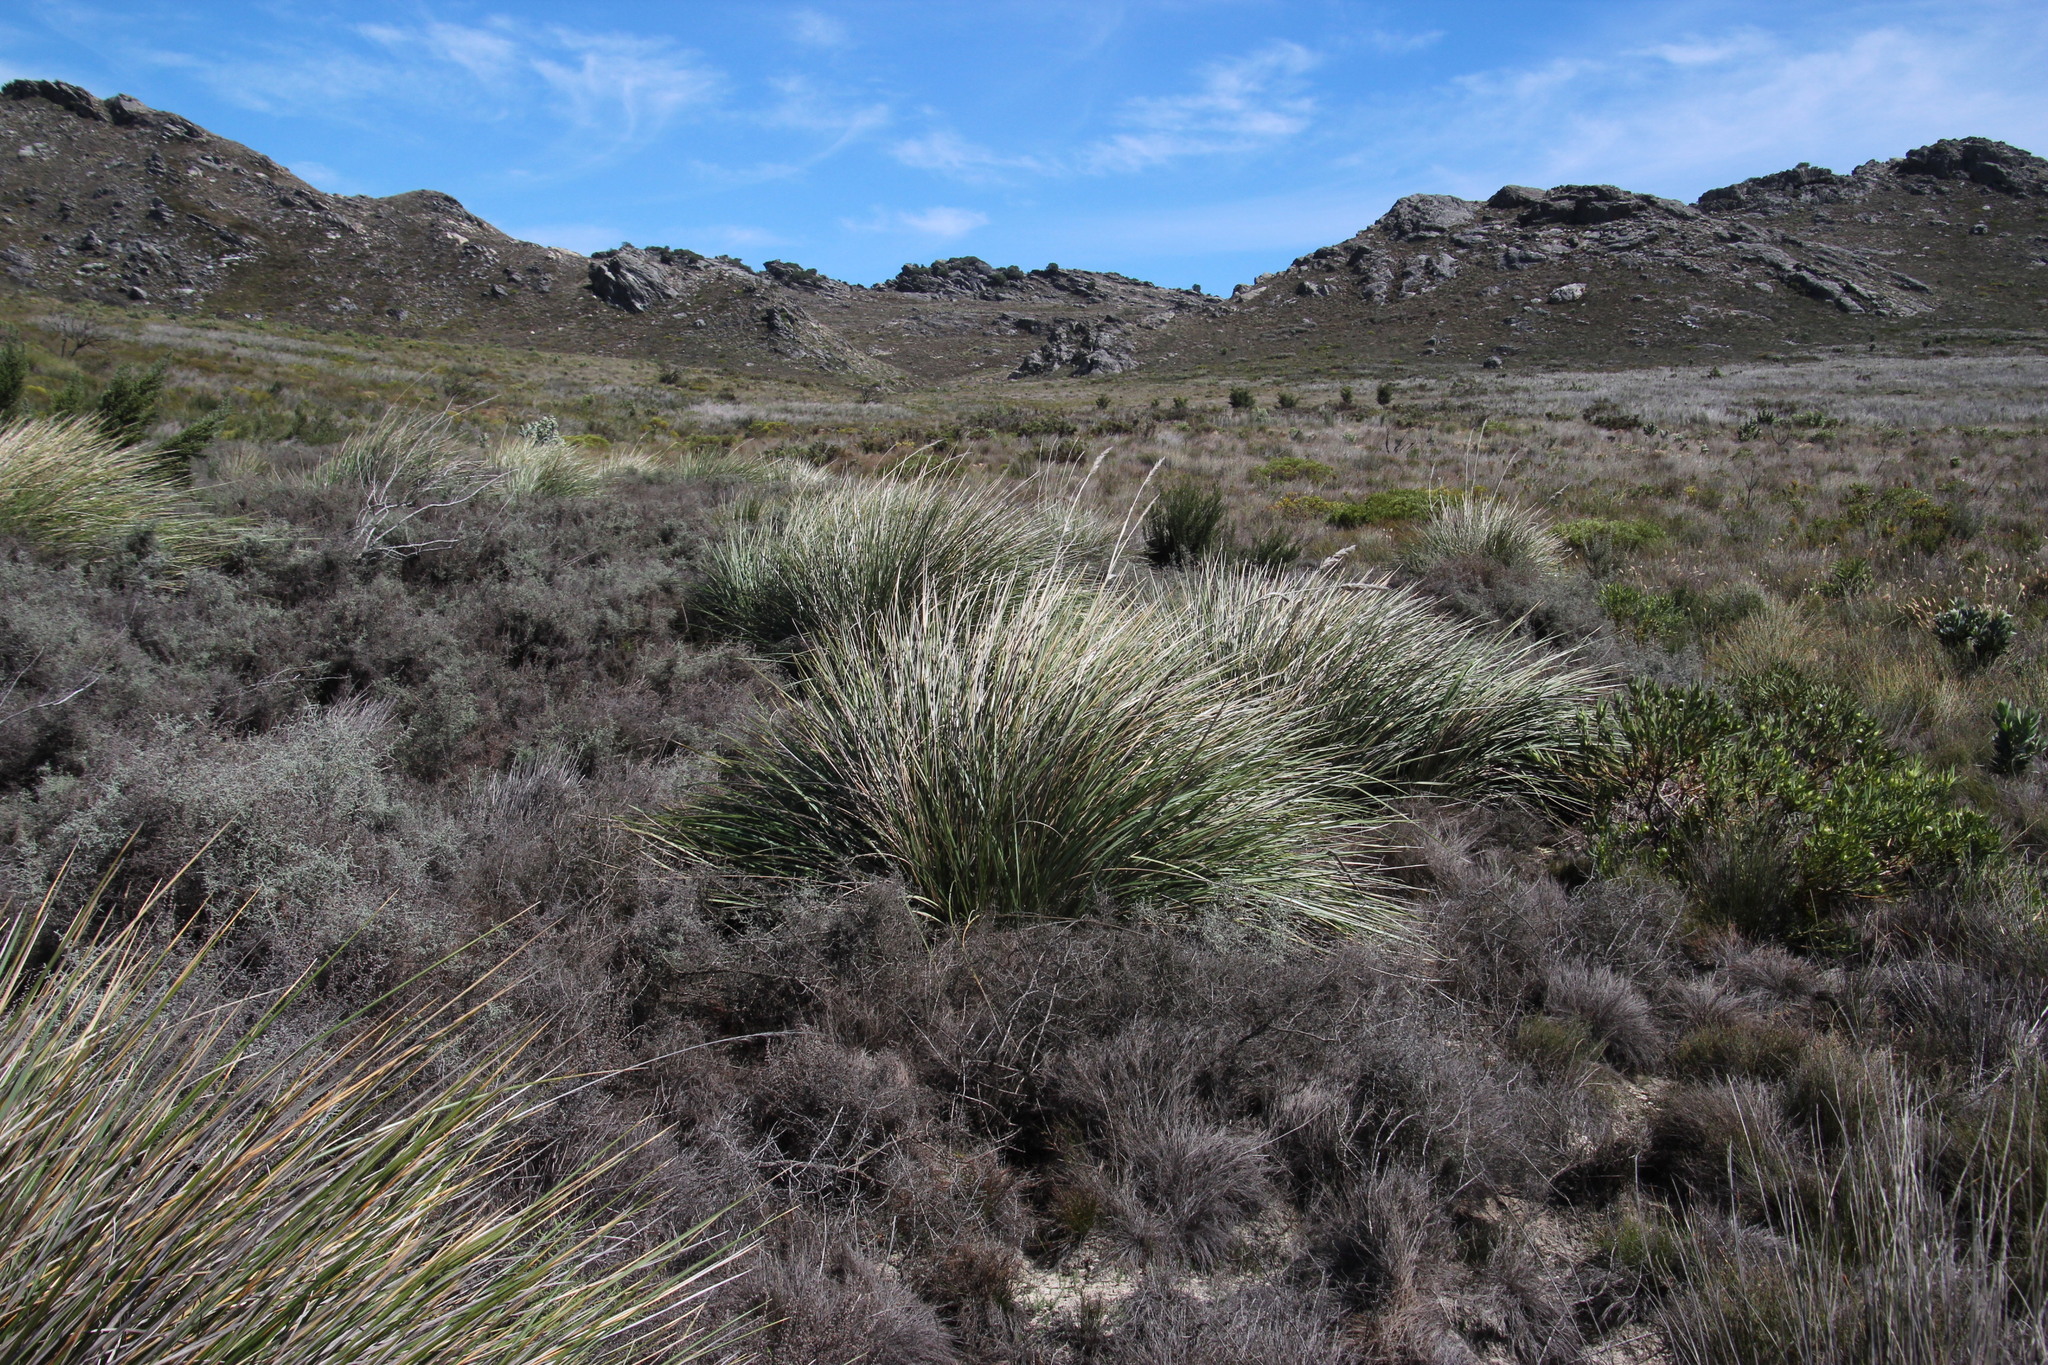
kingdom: Plantae
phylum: Tracheophyta
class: Liliopsida
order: Poales
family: Poaceae
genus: Capeochloa
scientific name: Capeochloa cincta
